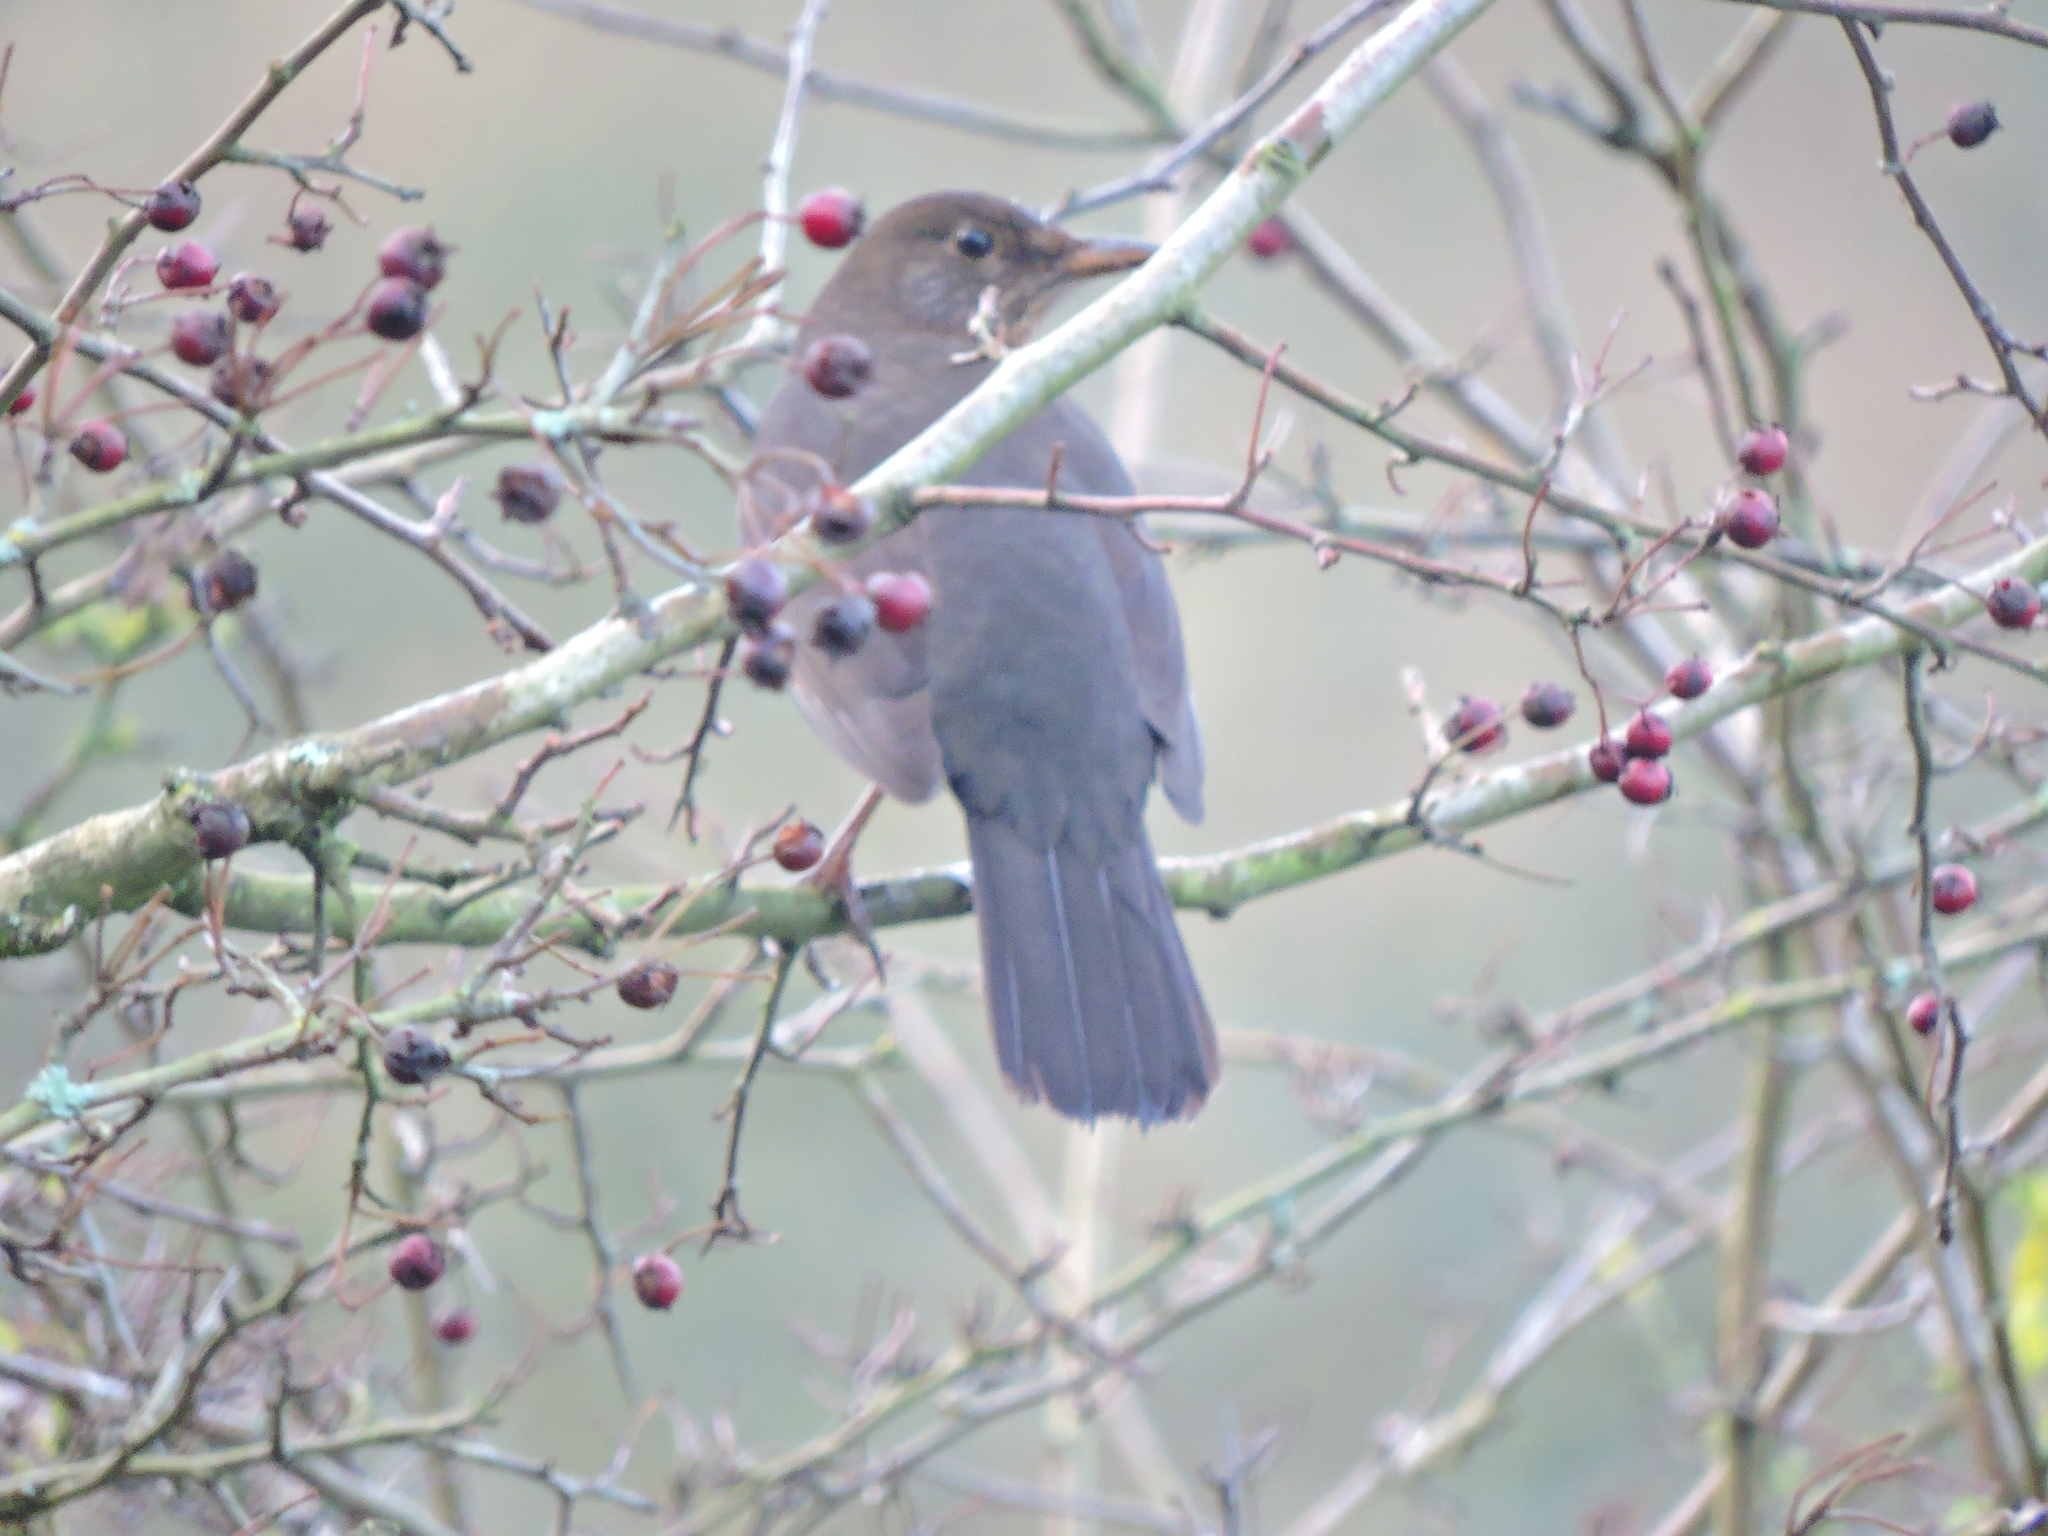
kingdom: Animalia
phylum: Chordata
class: Aves
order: Passeriformes
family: Turdidae
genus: Turdus
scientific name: Turdus merula
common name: Common blackbird
